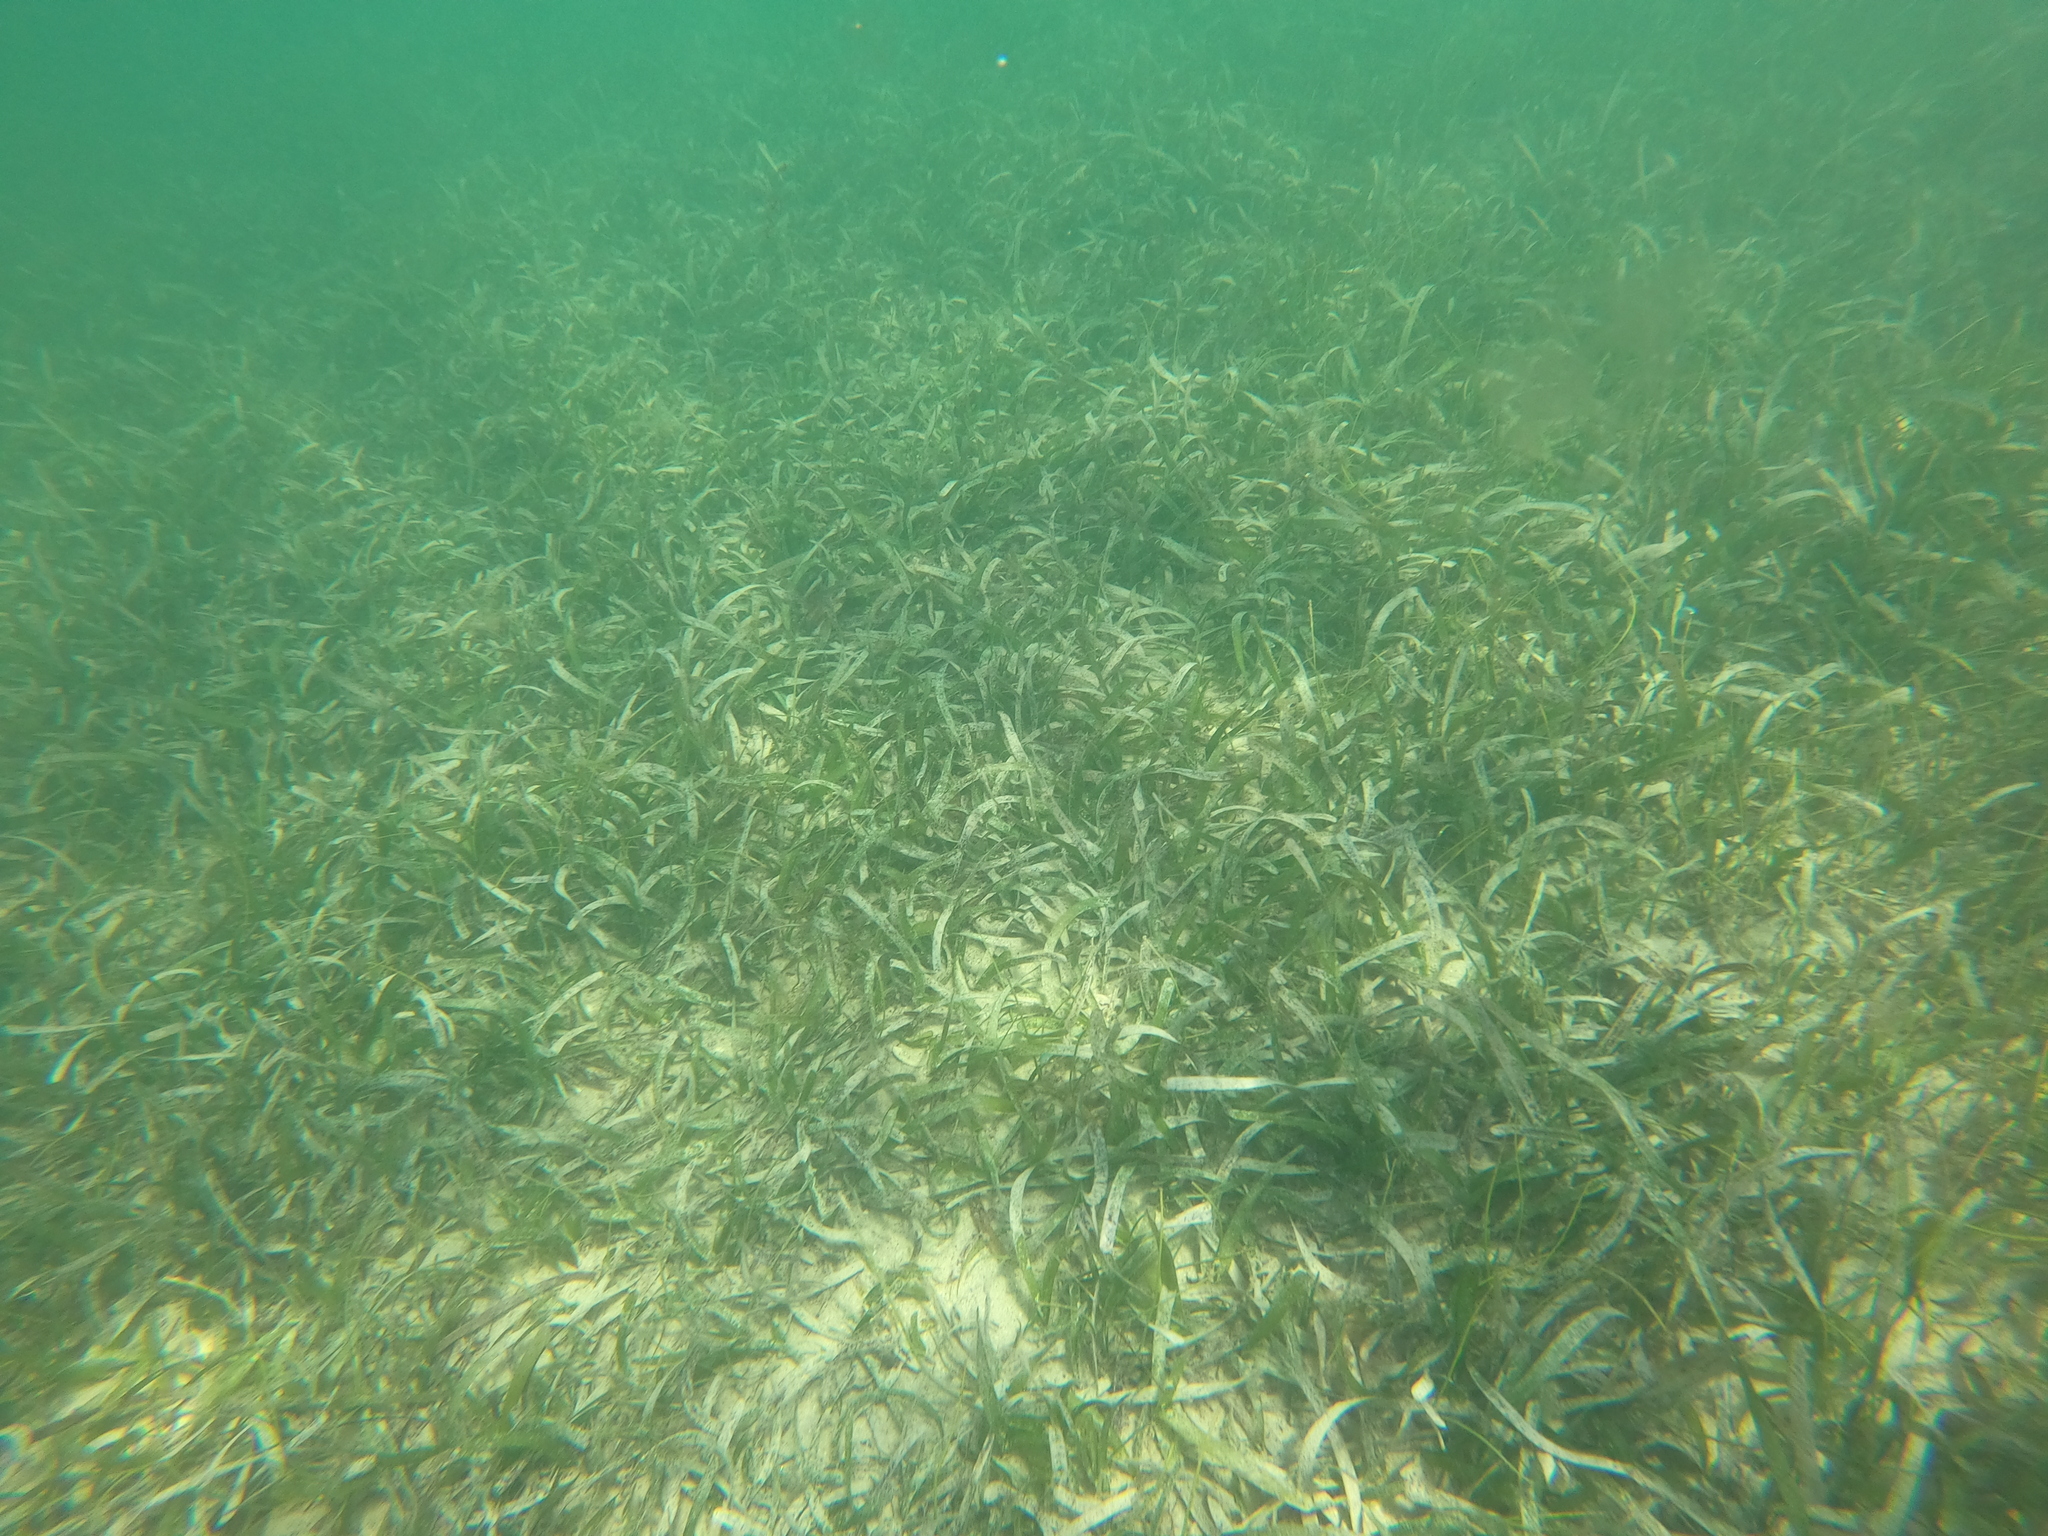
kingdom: Plantae
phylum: Tracheophyta
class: Liliopsida
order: Alismatales
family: Hydrocharitaceae
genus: Thalassia
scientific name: Thalassia testudinum
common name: Species code: tt
